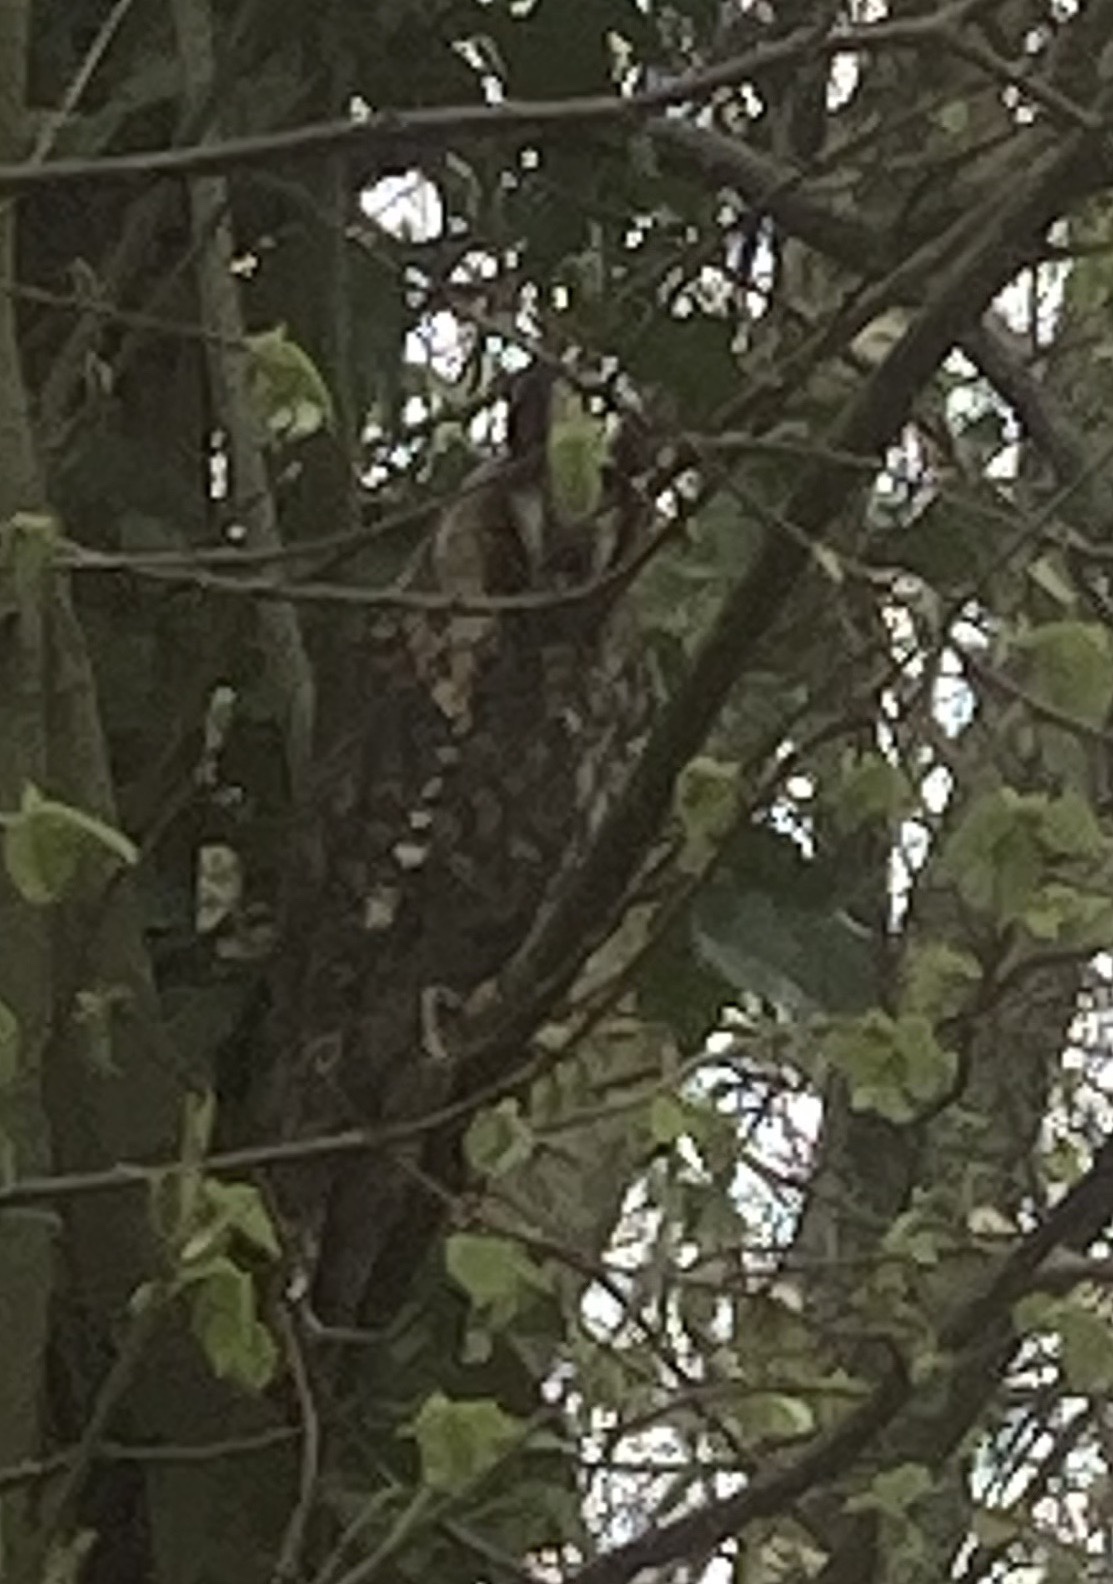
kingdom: Animalia
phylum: Chordata
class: Aves
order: Strigiformes
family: Strigidae
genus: Asio
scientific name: Asio otus
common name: Long-eared owl
